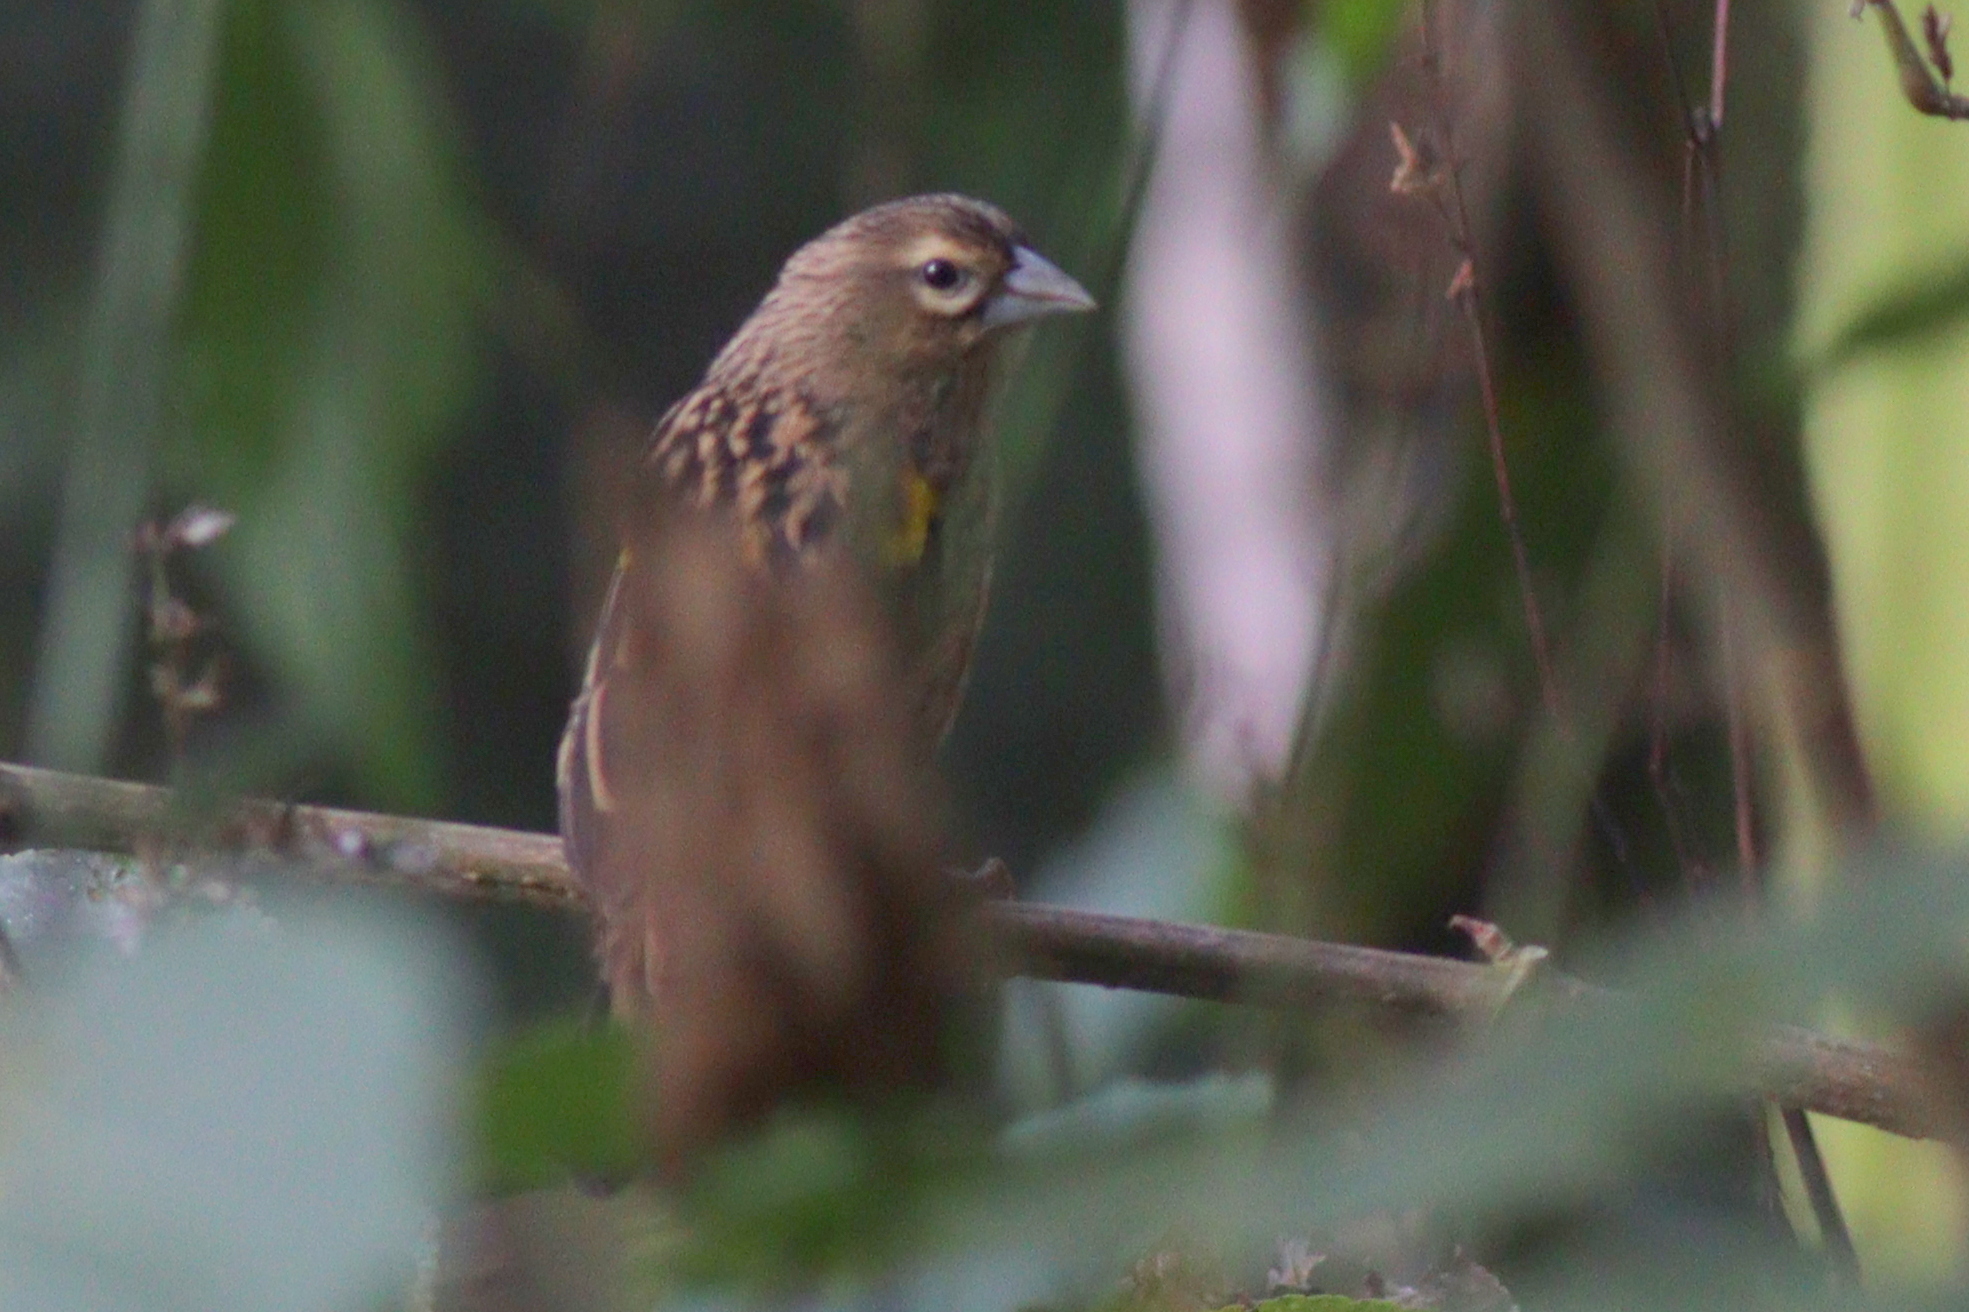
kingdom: Animalia
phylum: Chordata
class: Aves
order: Passeriformes
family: Ploceidae
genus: Euplectes
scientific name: Euplectes capensis
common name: Yellow bishop
